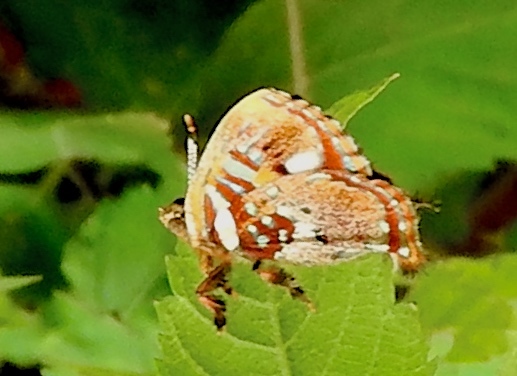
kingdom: Animalia
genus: Anteros
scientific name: Anteros carausius
